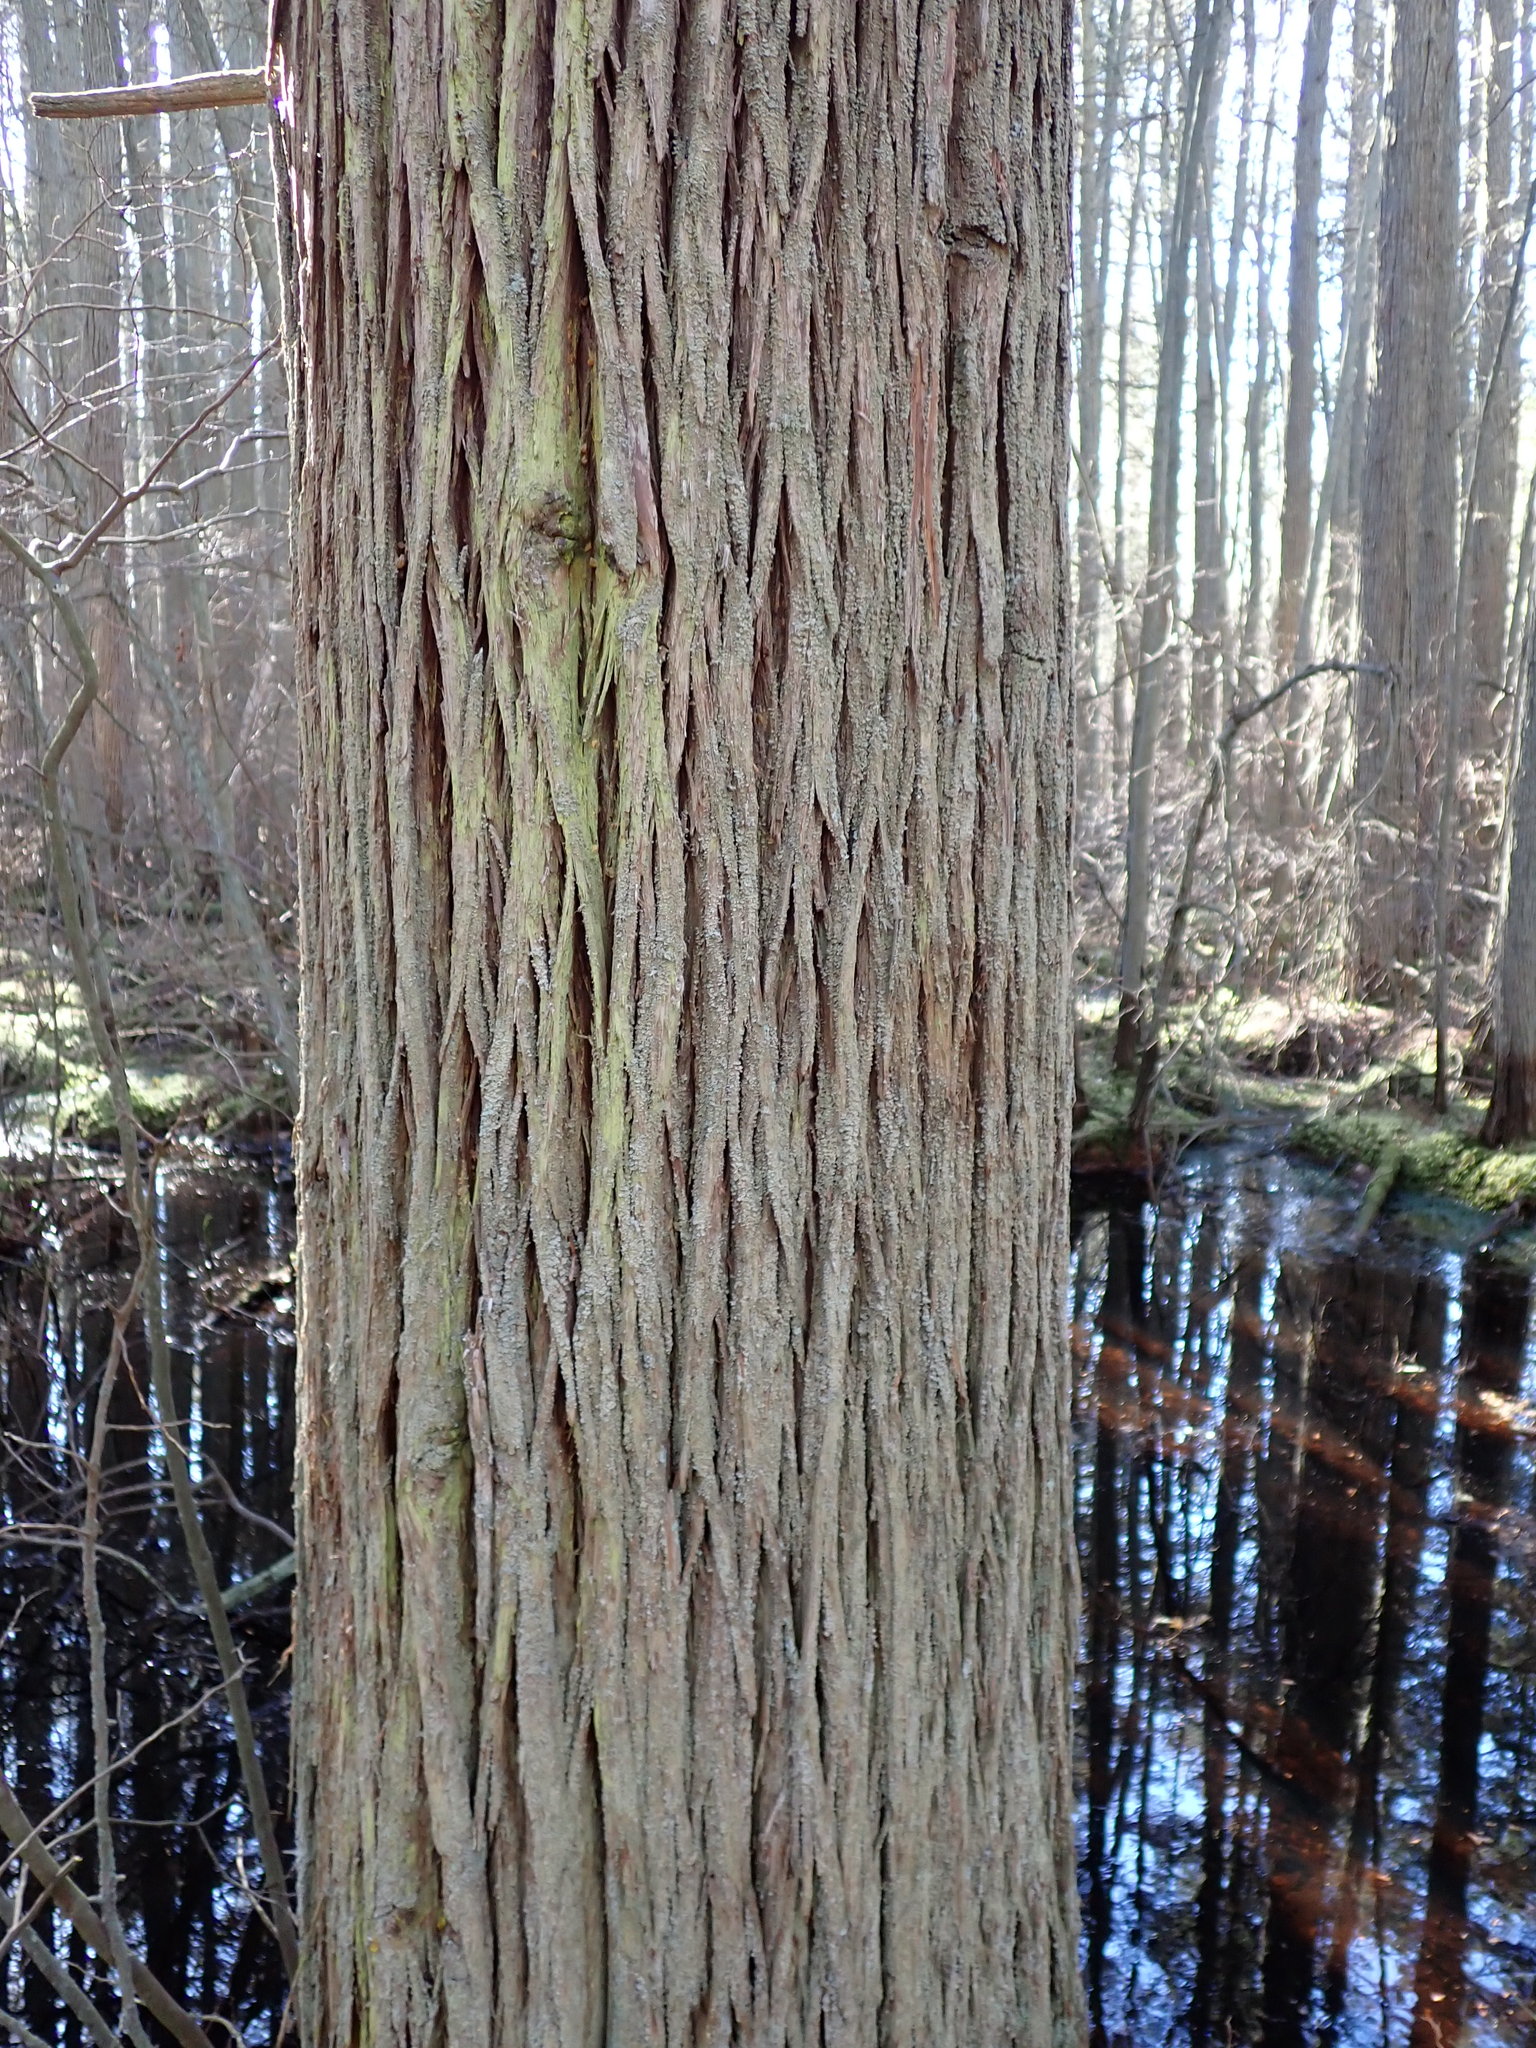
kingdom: Plantae
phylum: Tracheophyta
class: Pinopsida
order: Pinales
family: Cupressaceae
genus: Chamaecyparis
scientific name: Chamaecyparis thyoides
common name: Atlantic white cedar
